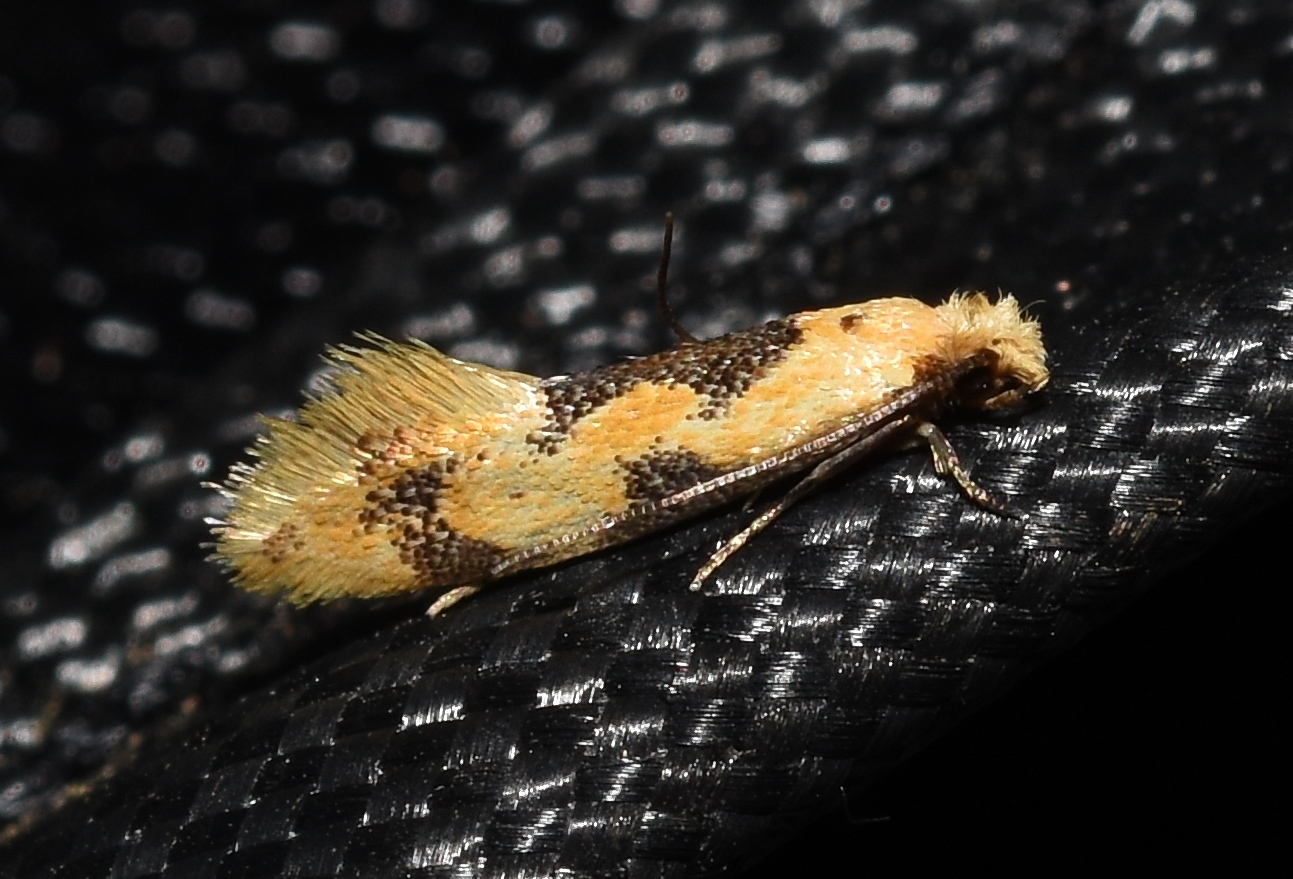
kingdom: Animalia
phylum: Arthropoda
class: Insecta
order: Lepidoptera
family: Meessiidae
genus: Hybroma
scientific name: Hybroma servulella
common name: Yellow wave moth
